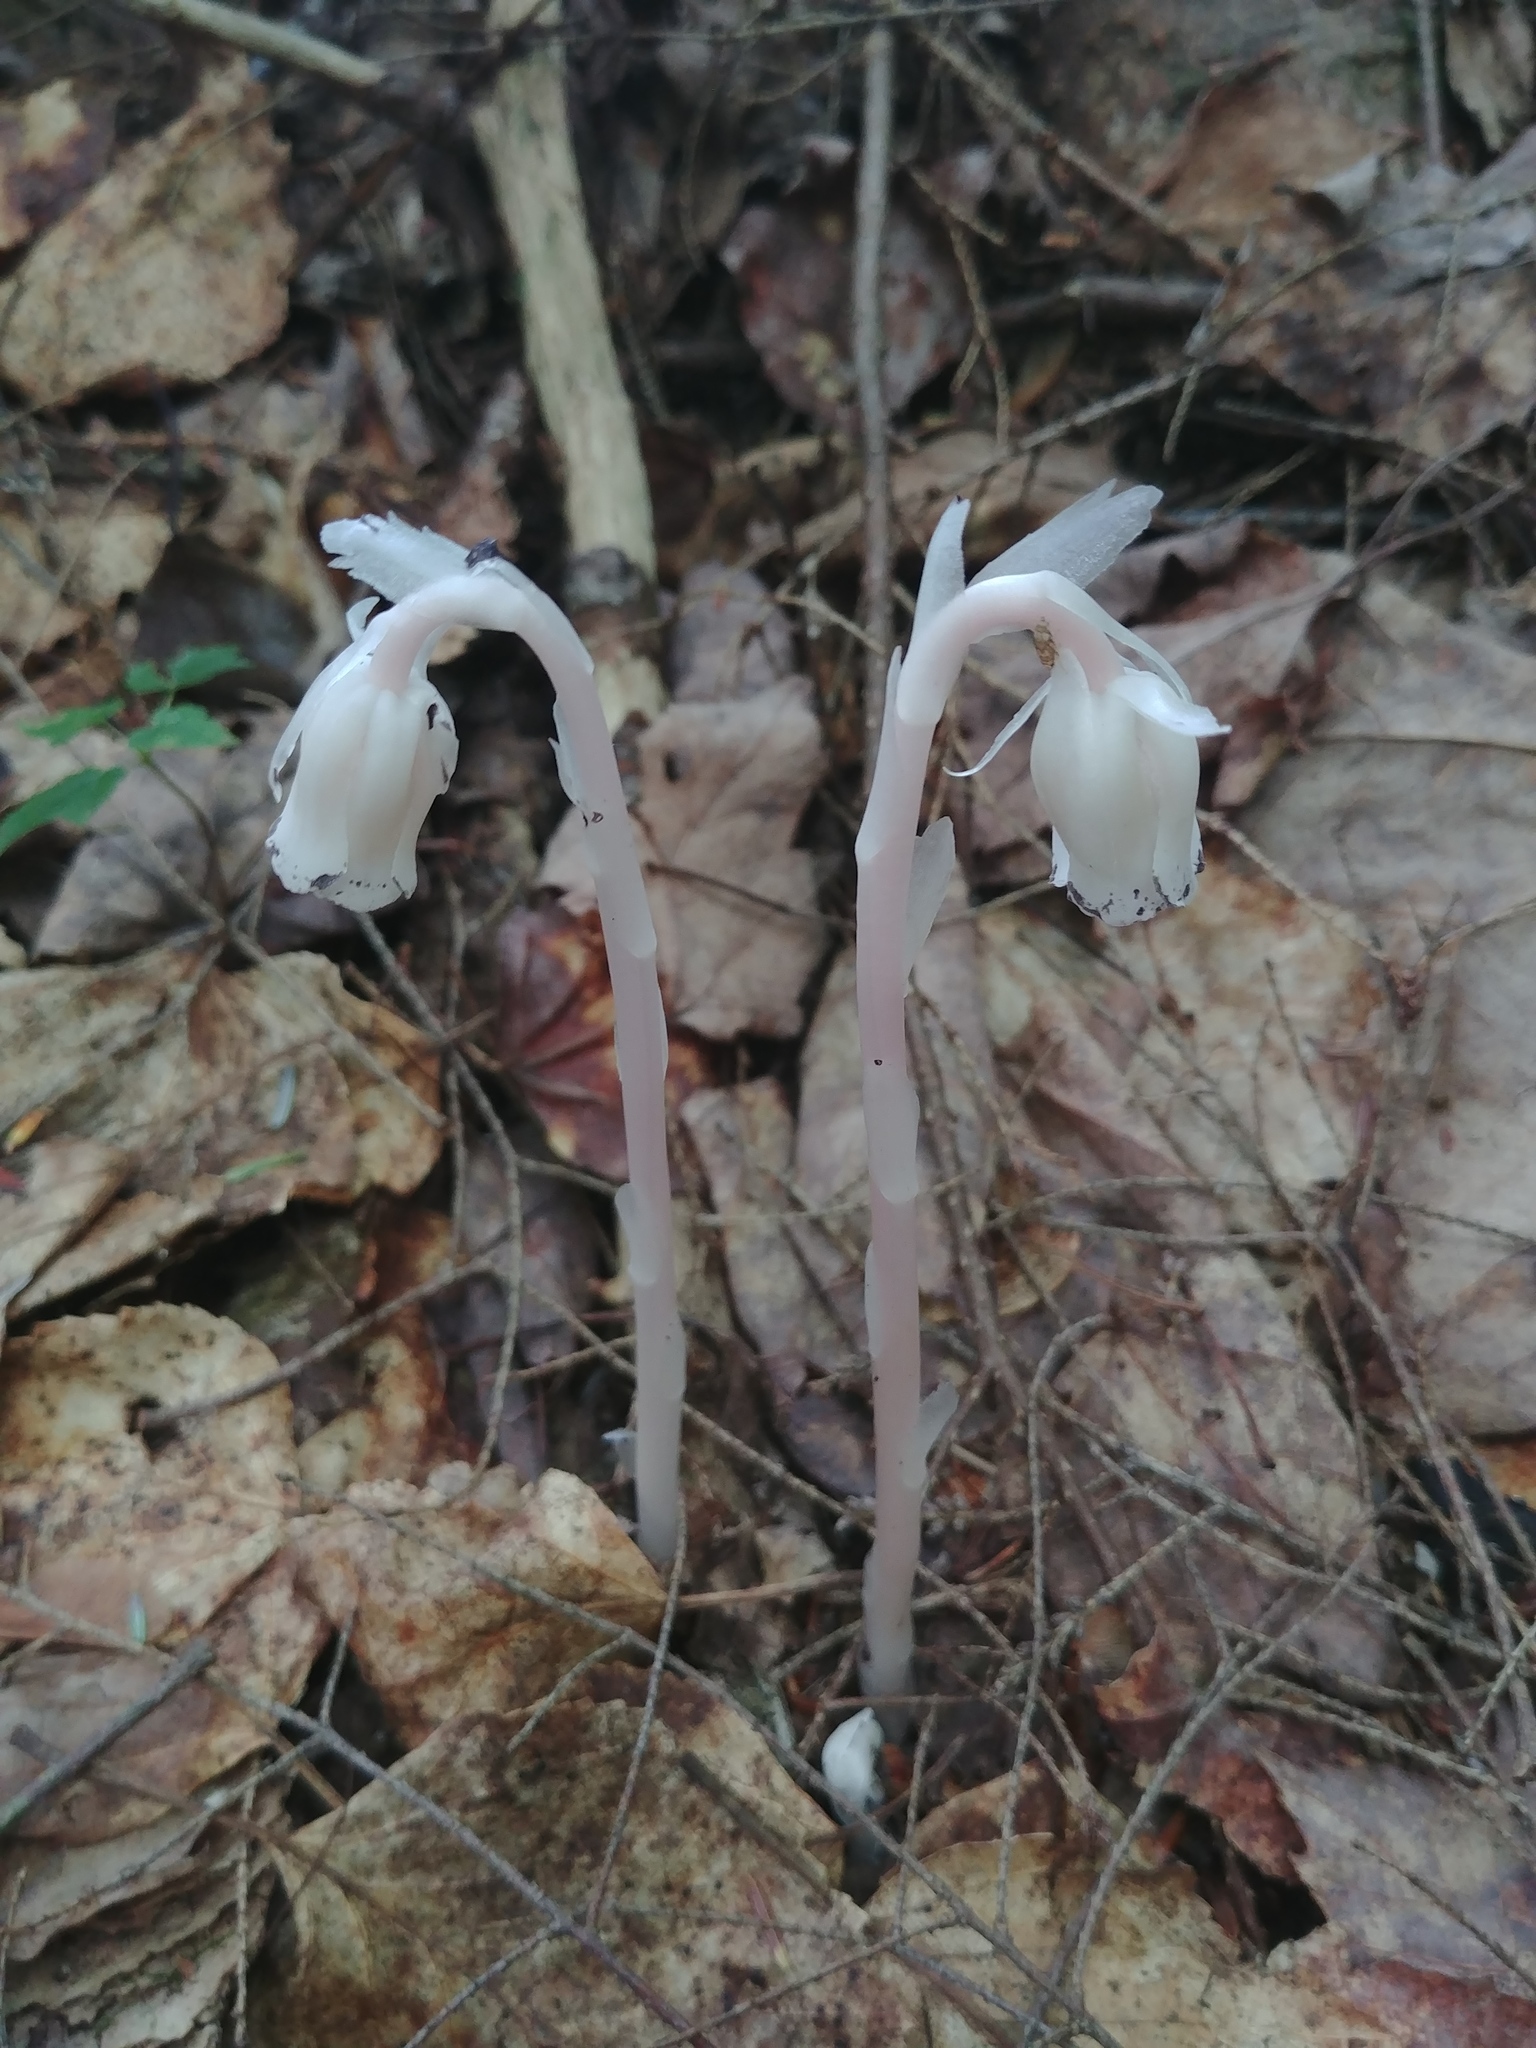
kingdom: Plantae
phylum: Tracheophyta
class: Magnoliopsida
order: Ericales
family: Ericaceae
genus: Monotropa
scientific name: Monotropa uniflora
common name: Convulsion root
